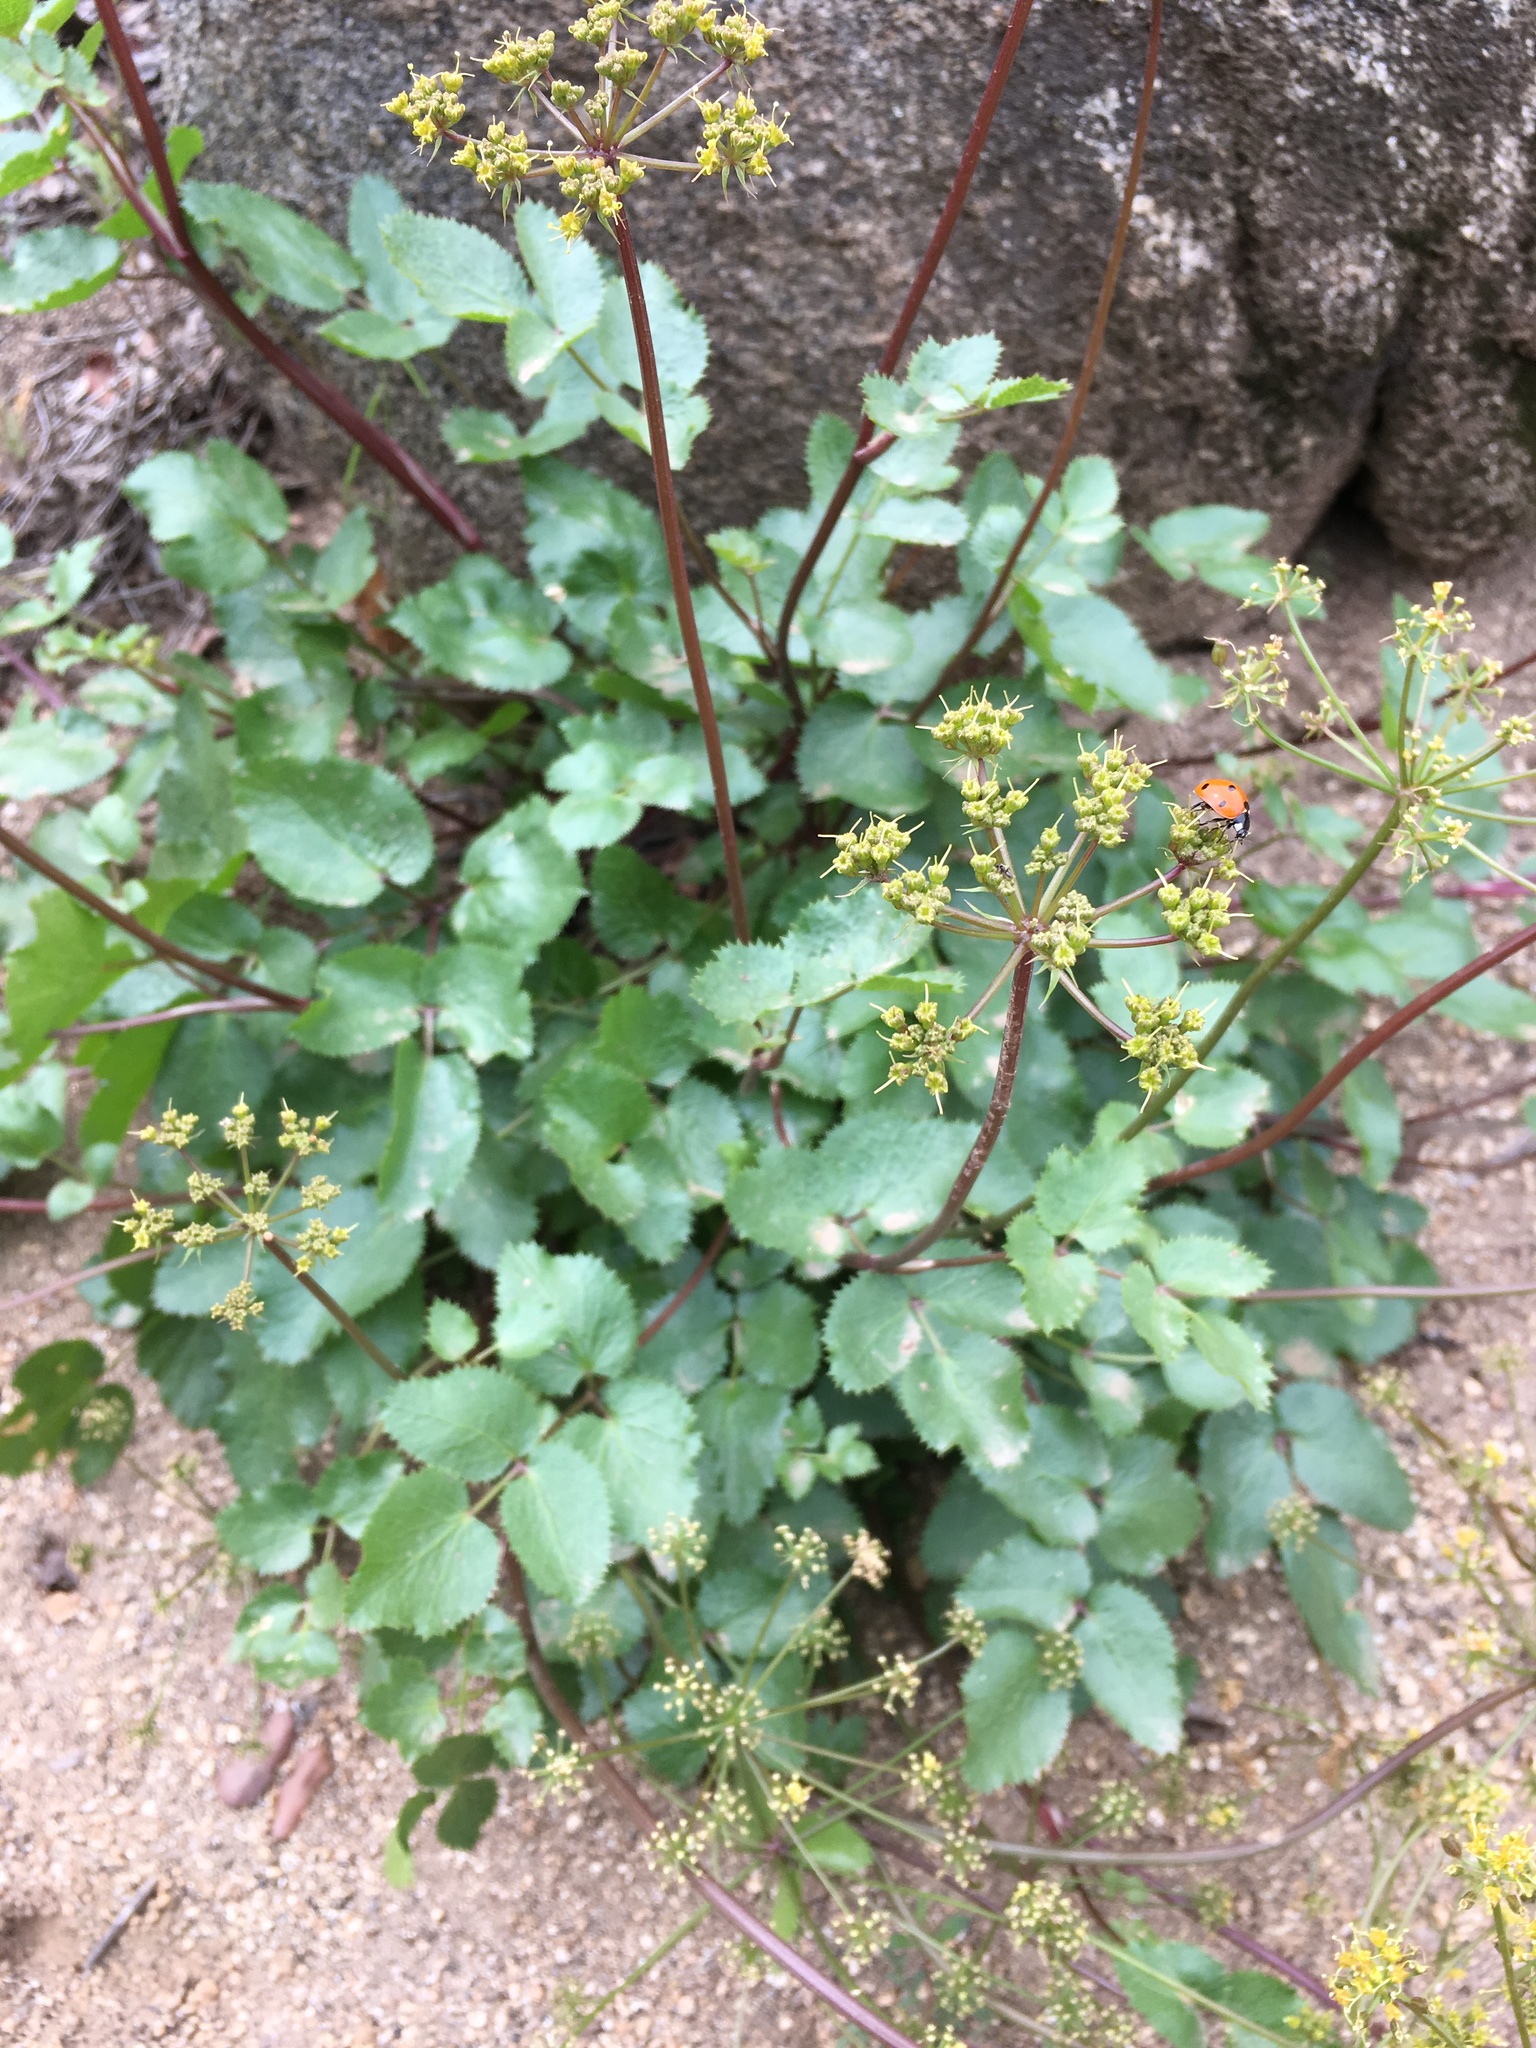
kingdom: Plantae
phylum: Tracheophyta
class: Magnoliopsida
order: Apiales
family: Apiaceae
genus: Tauschia
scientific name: Tauschia arguta
